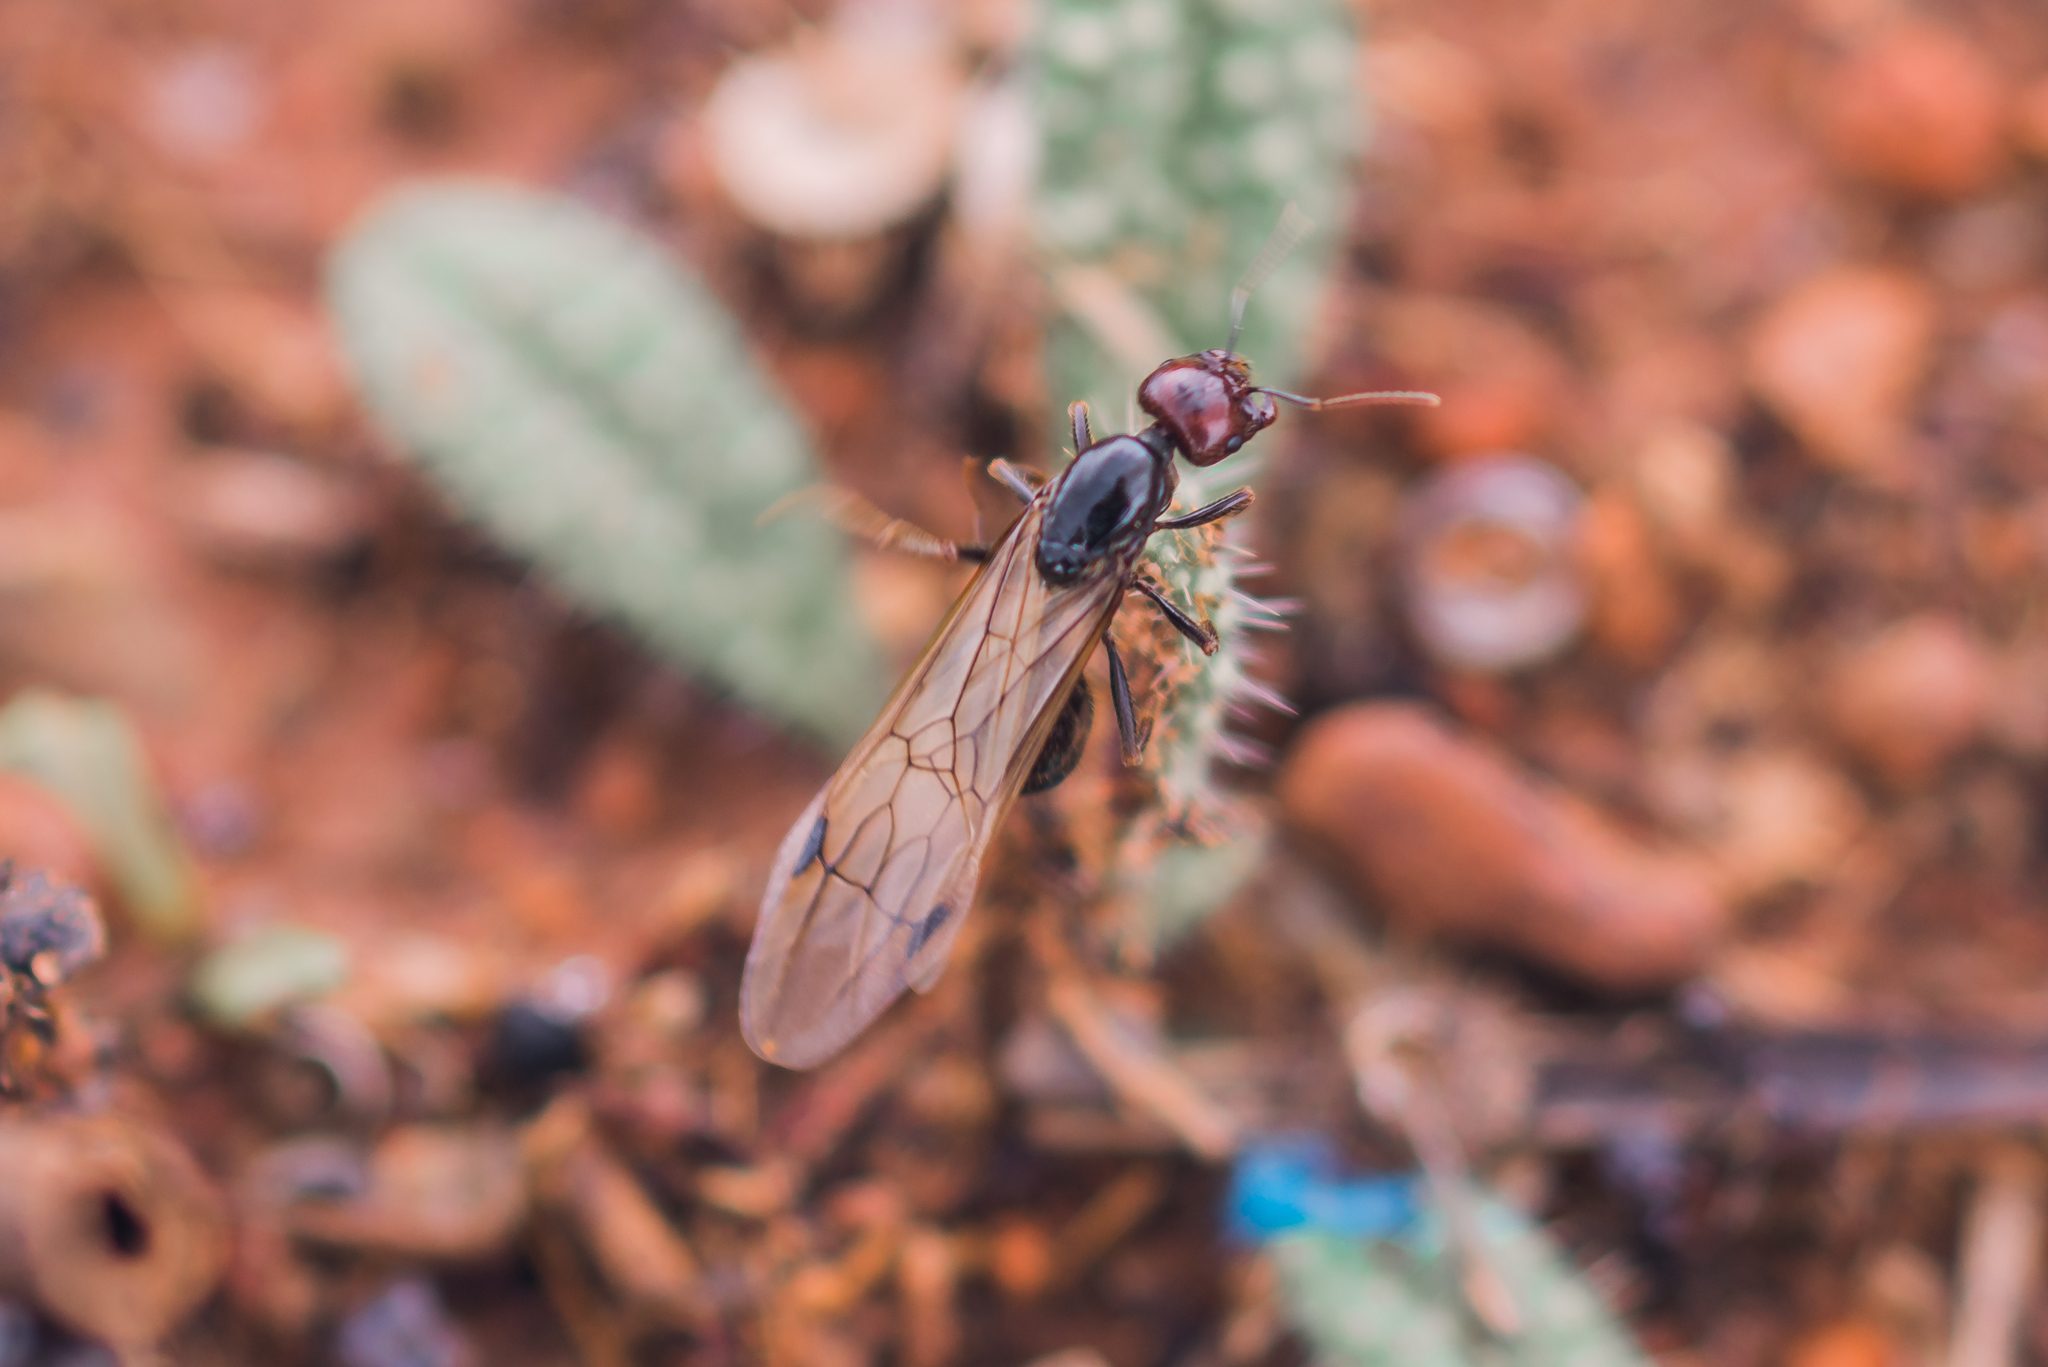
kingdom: Animalia
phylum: Arthropoda
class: Insecta
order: Hymenoptera
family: Formicidae
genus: Messor
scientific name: Messor barbarus
